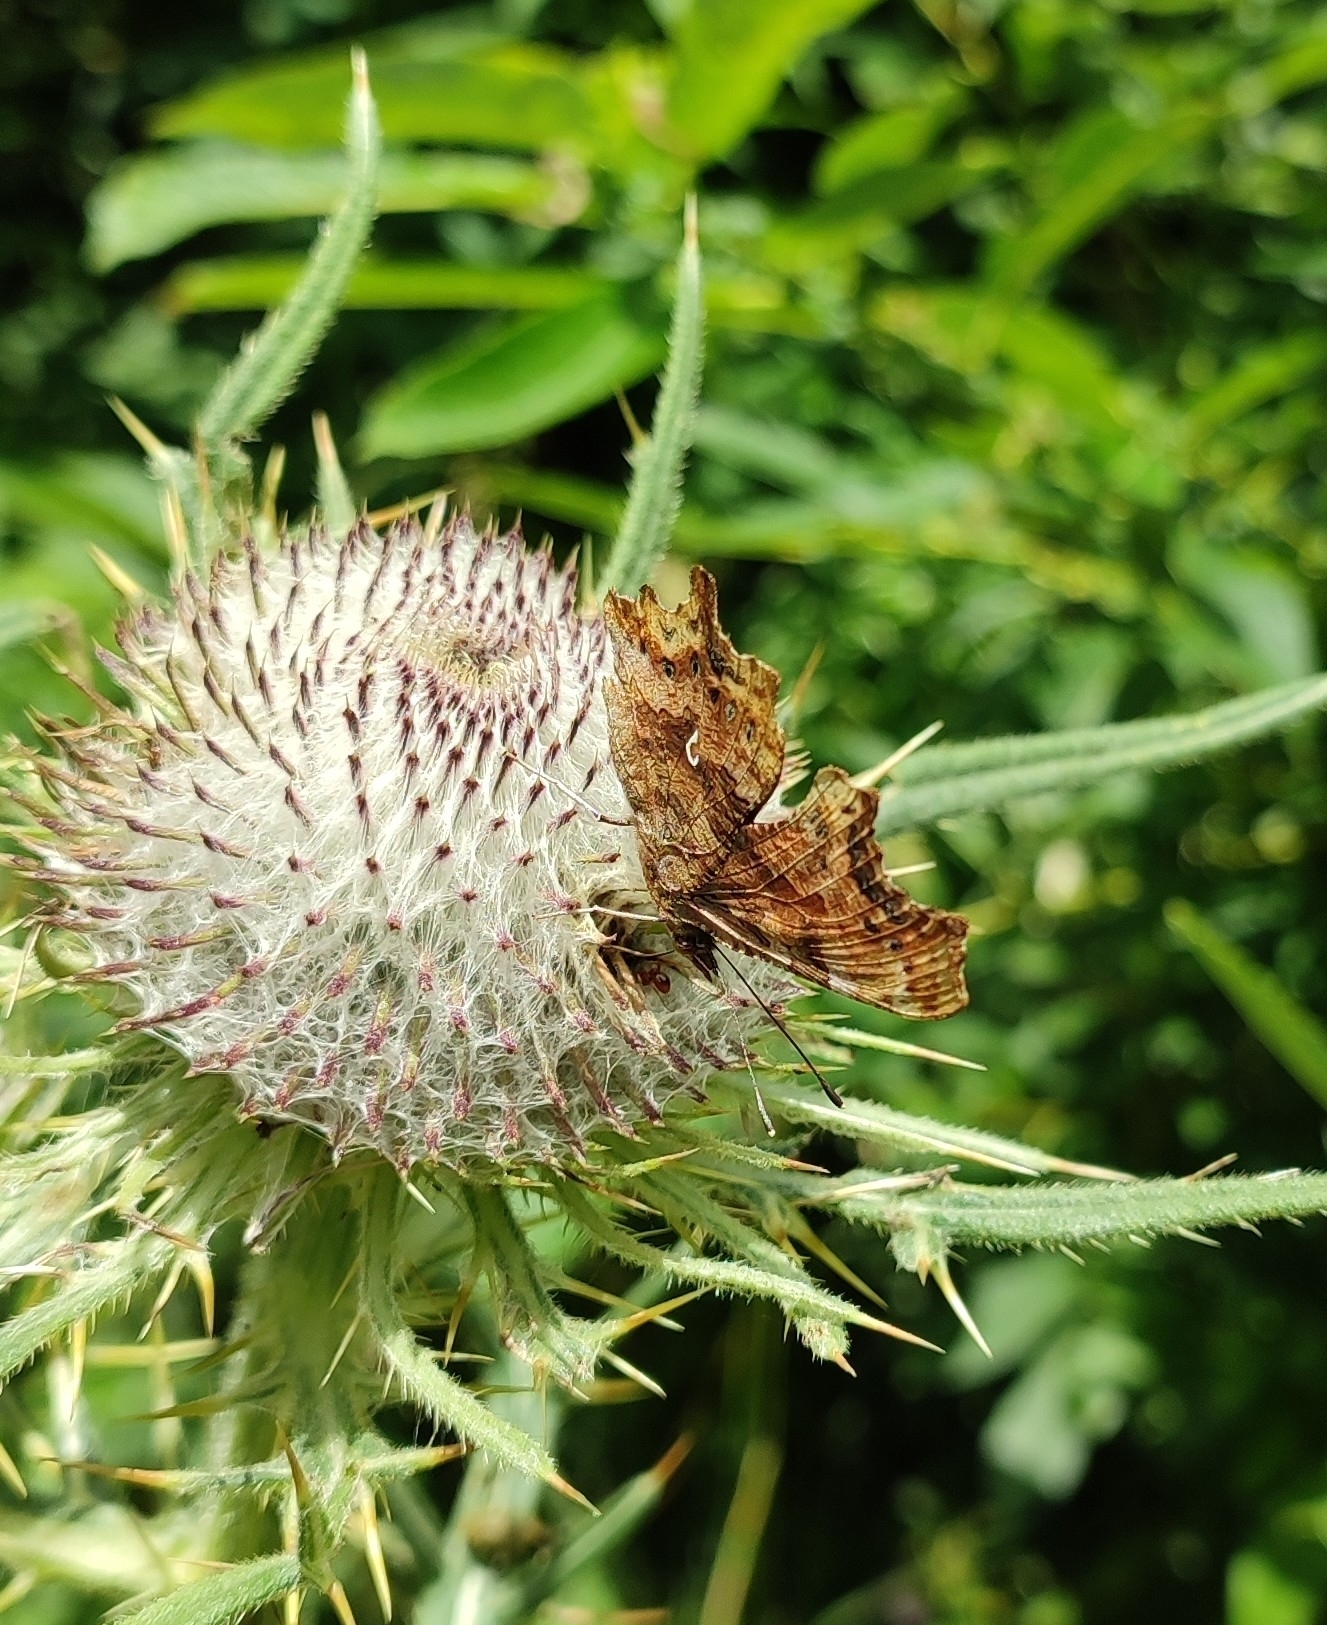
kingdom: Animalia
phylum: Arthropoda
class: Insecta
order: Lepidoptera
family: Nymphalidae
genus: Polygonia
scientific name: Polygonia c-album
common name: Comma
